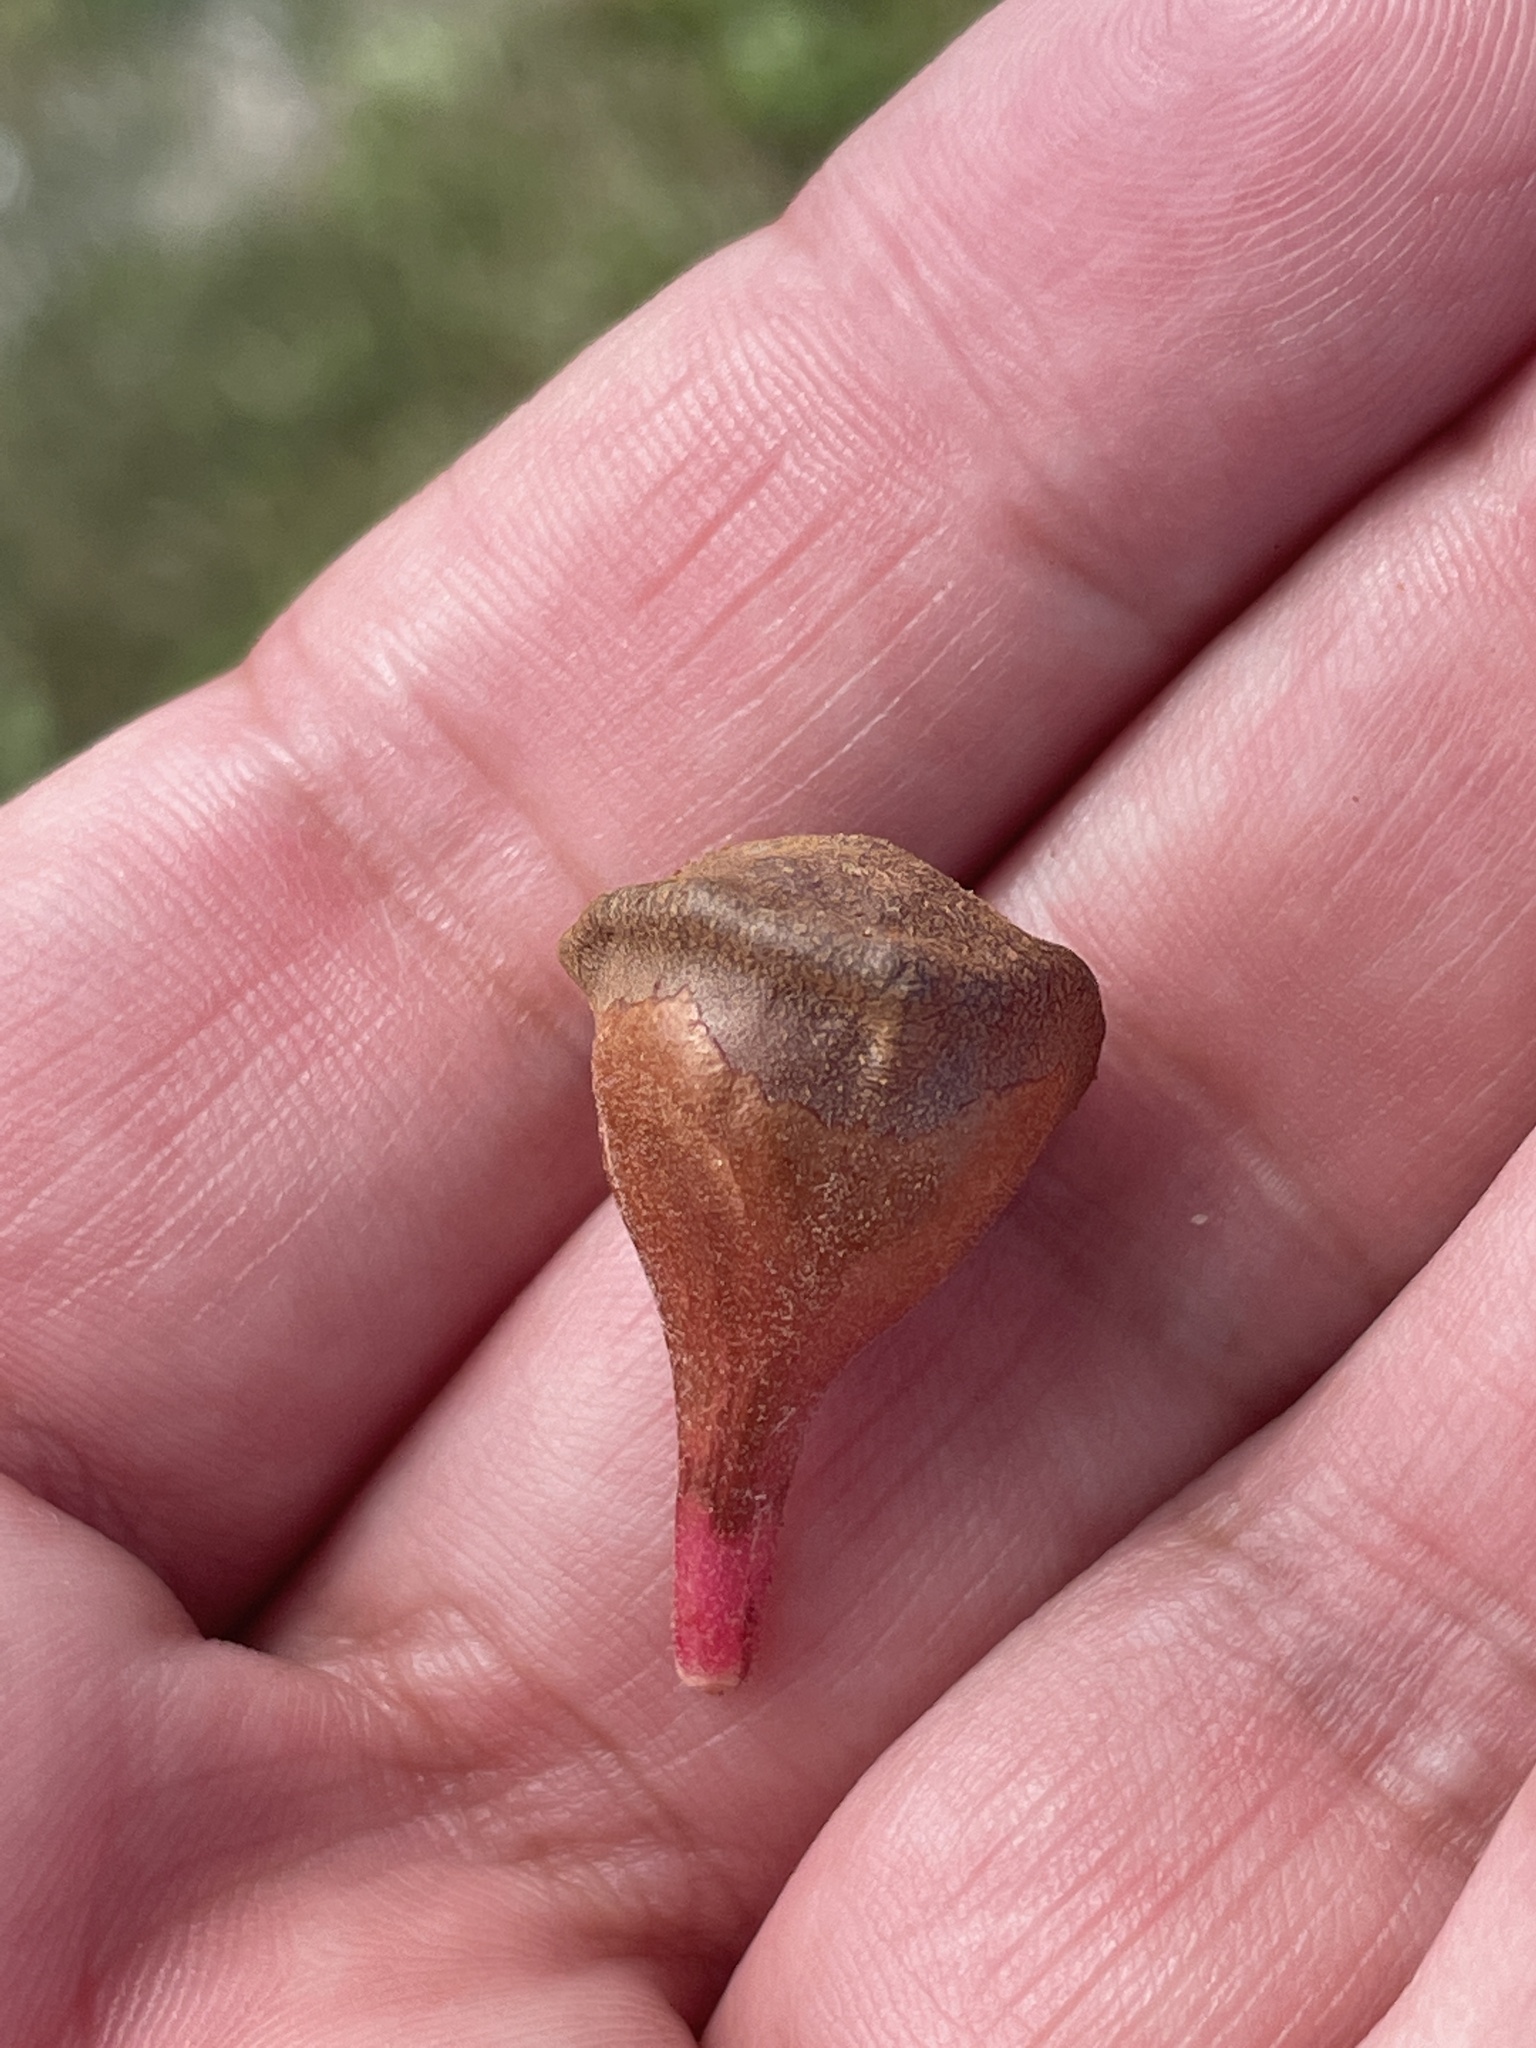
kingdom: Animalia
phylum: Arthropoda
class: Insecta
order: Hymenoptera
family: Cynipidae
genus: Andricus
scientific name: Andricus
